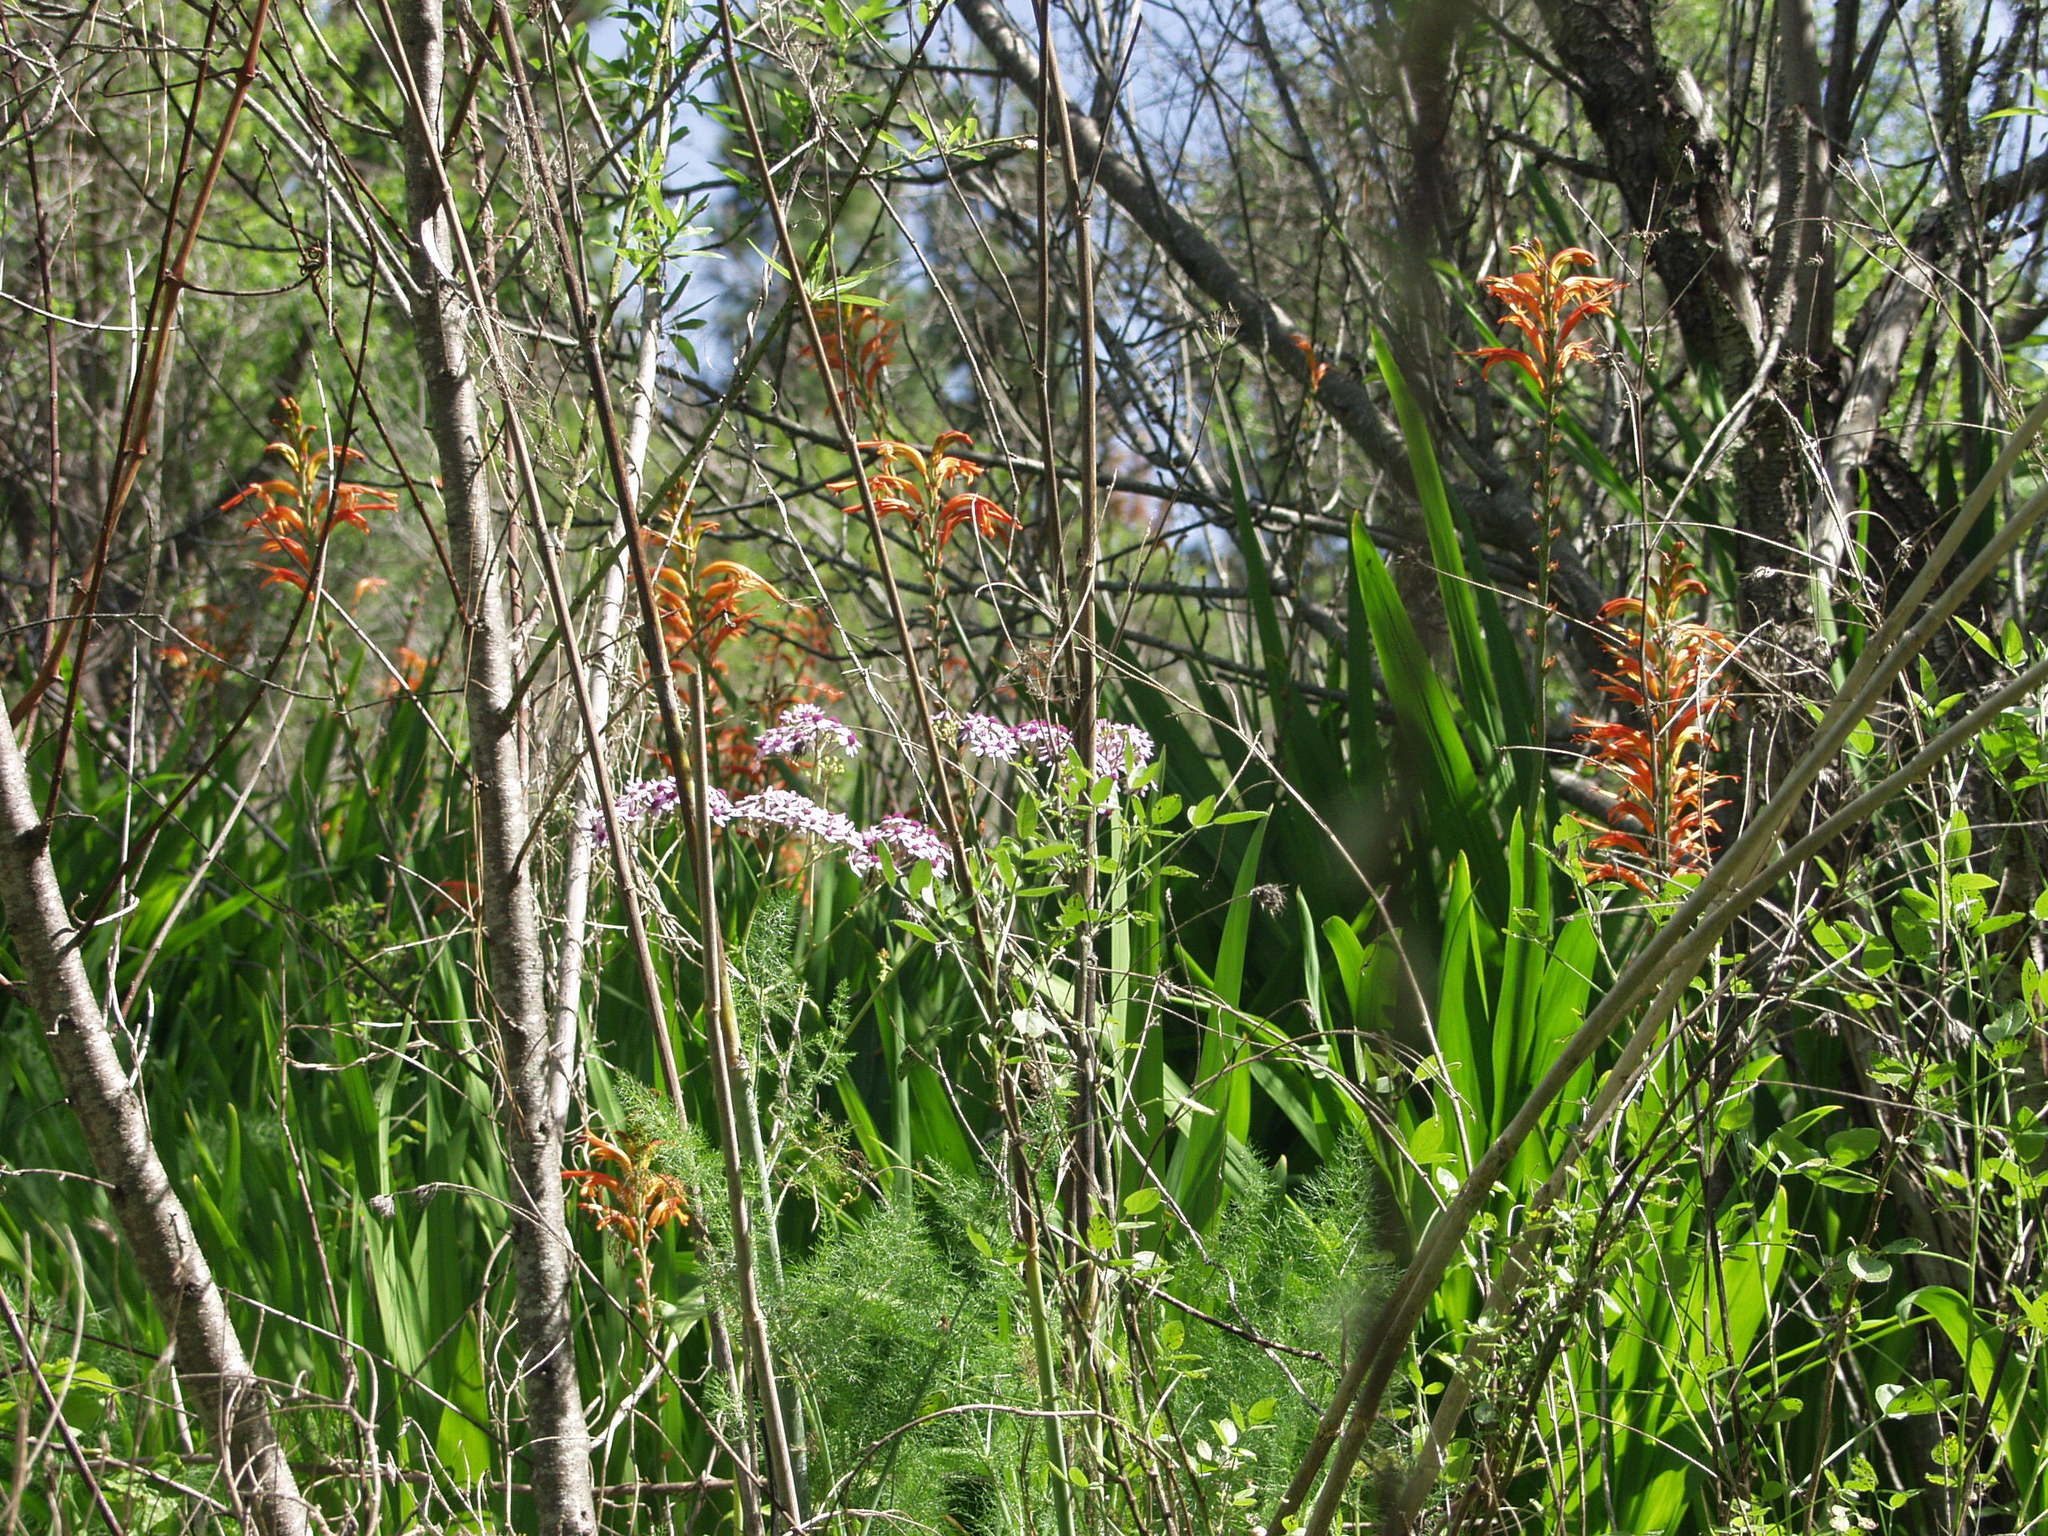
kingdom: Plantae
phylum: Tracheophyta
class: Liliopsida
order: Asparagales
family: Iridaceae
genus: Chasmanthe
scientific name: Chasmanthe floribunda
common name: African cornflag
